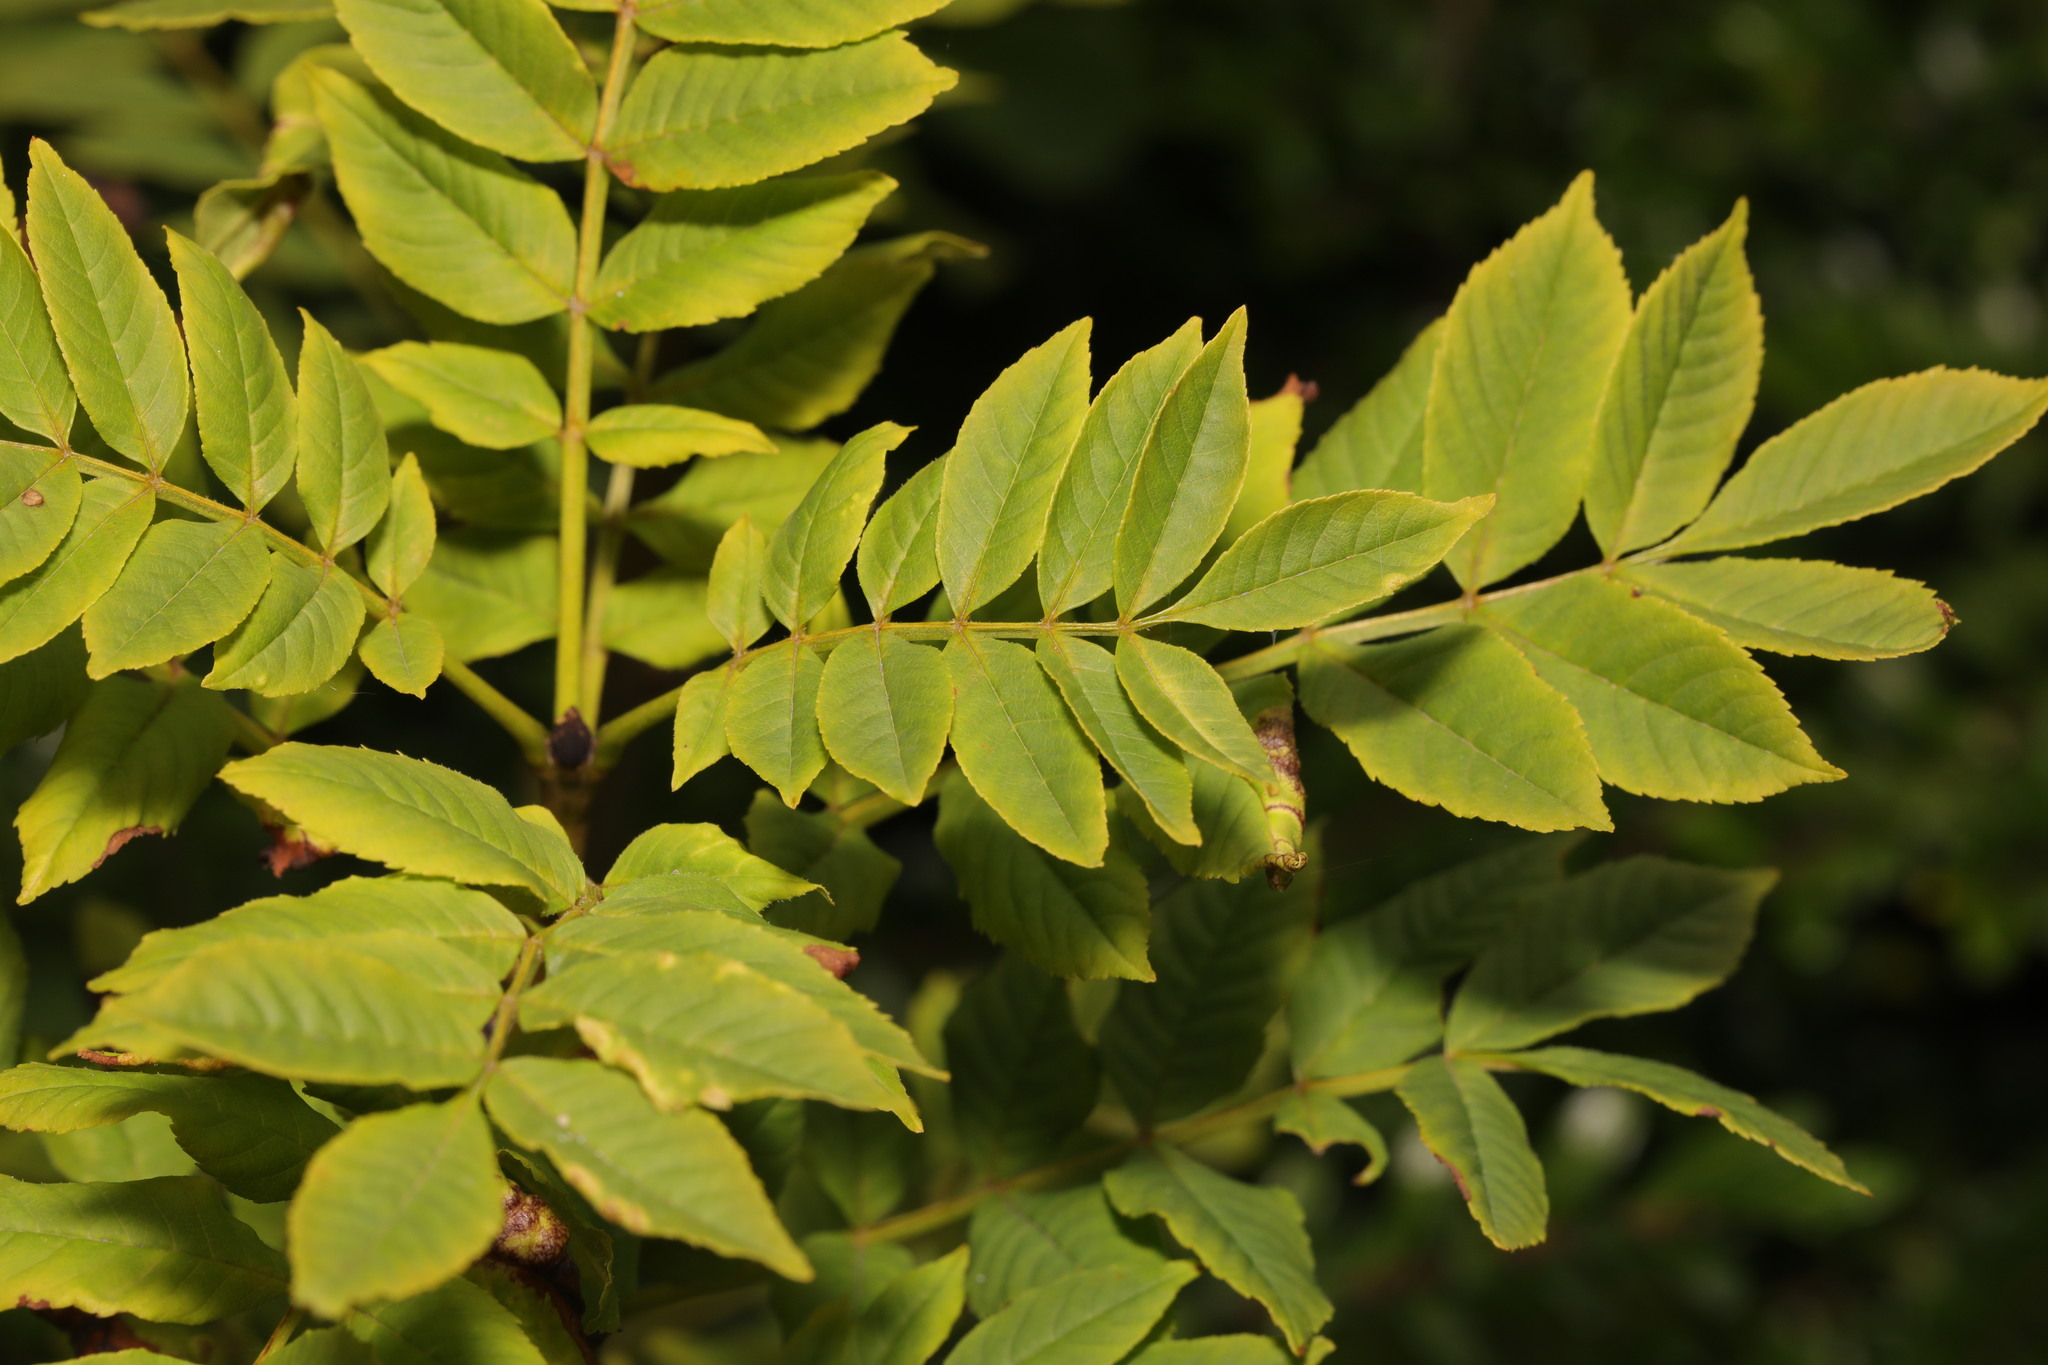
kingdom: Plantae
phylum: Tracheophyta
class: Magnoliopsida
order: Lamiales
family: Oleaceae
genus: Fraxinus
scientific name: Fraxinus excelsior
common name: European ash
